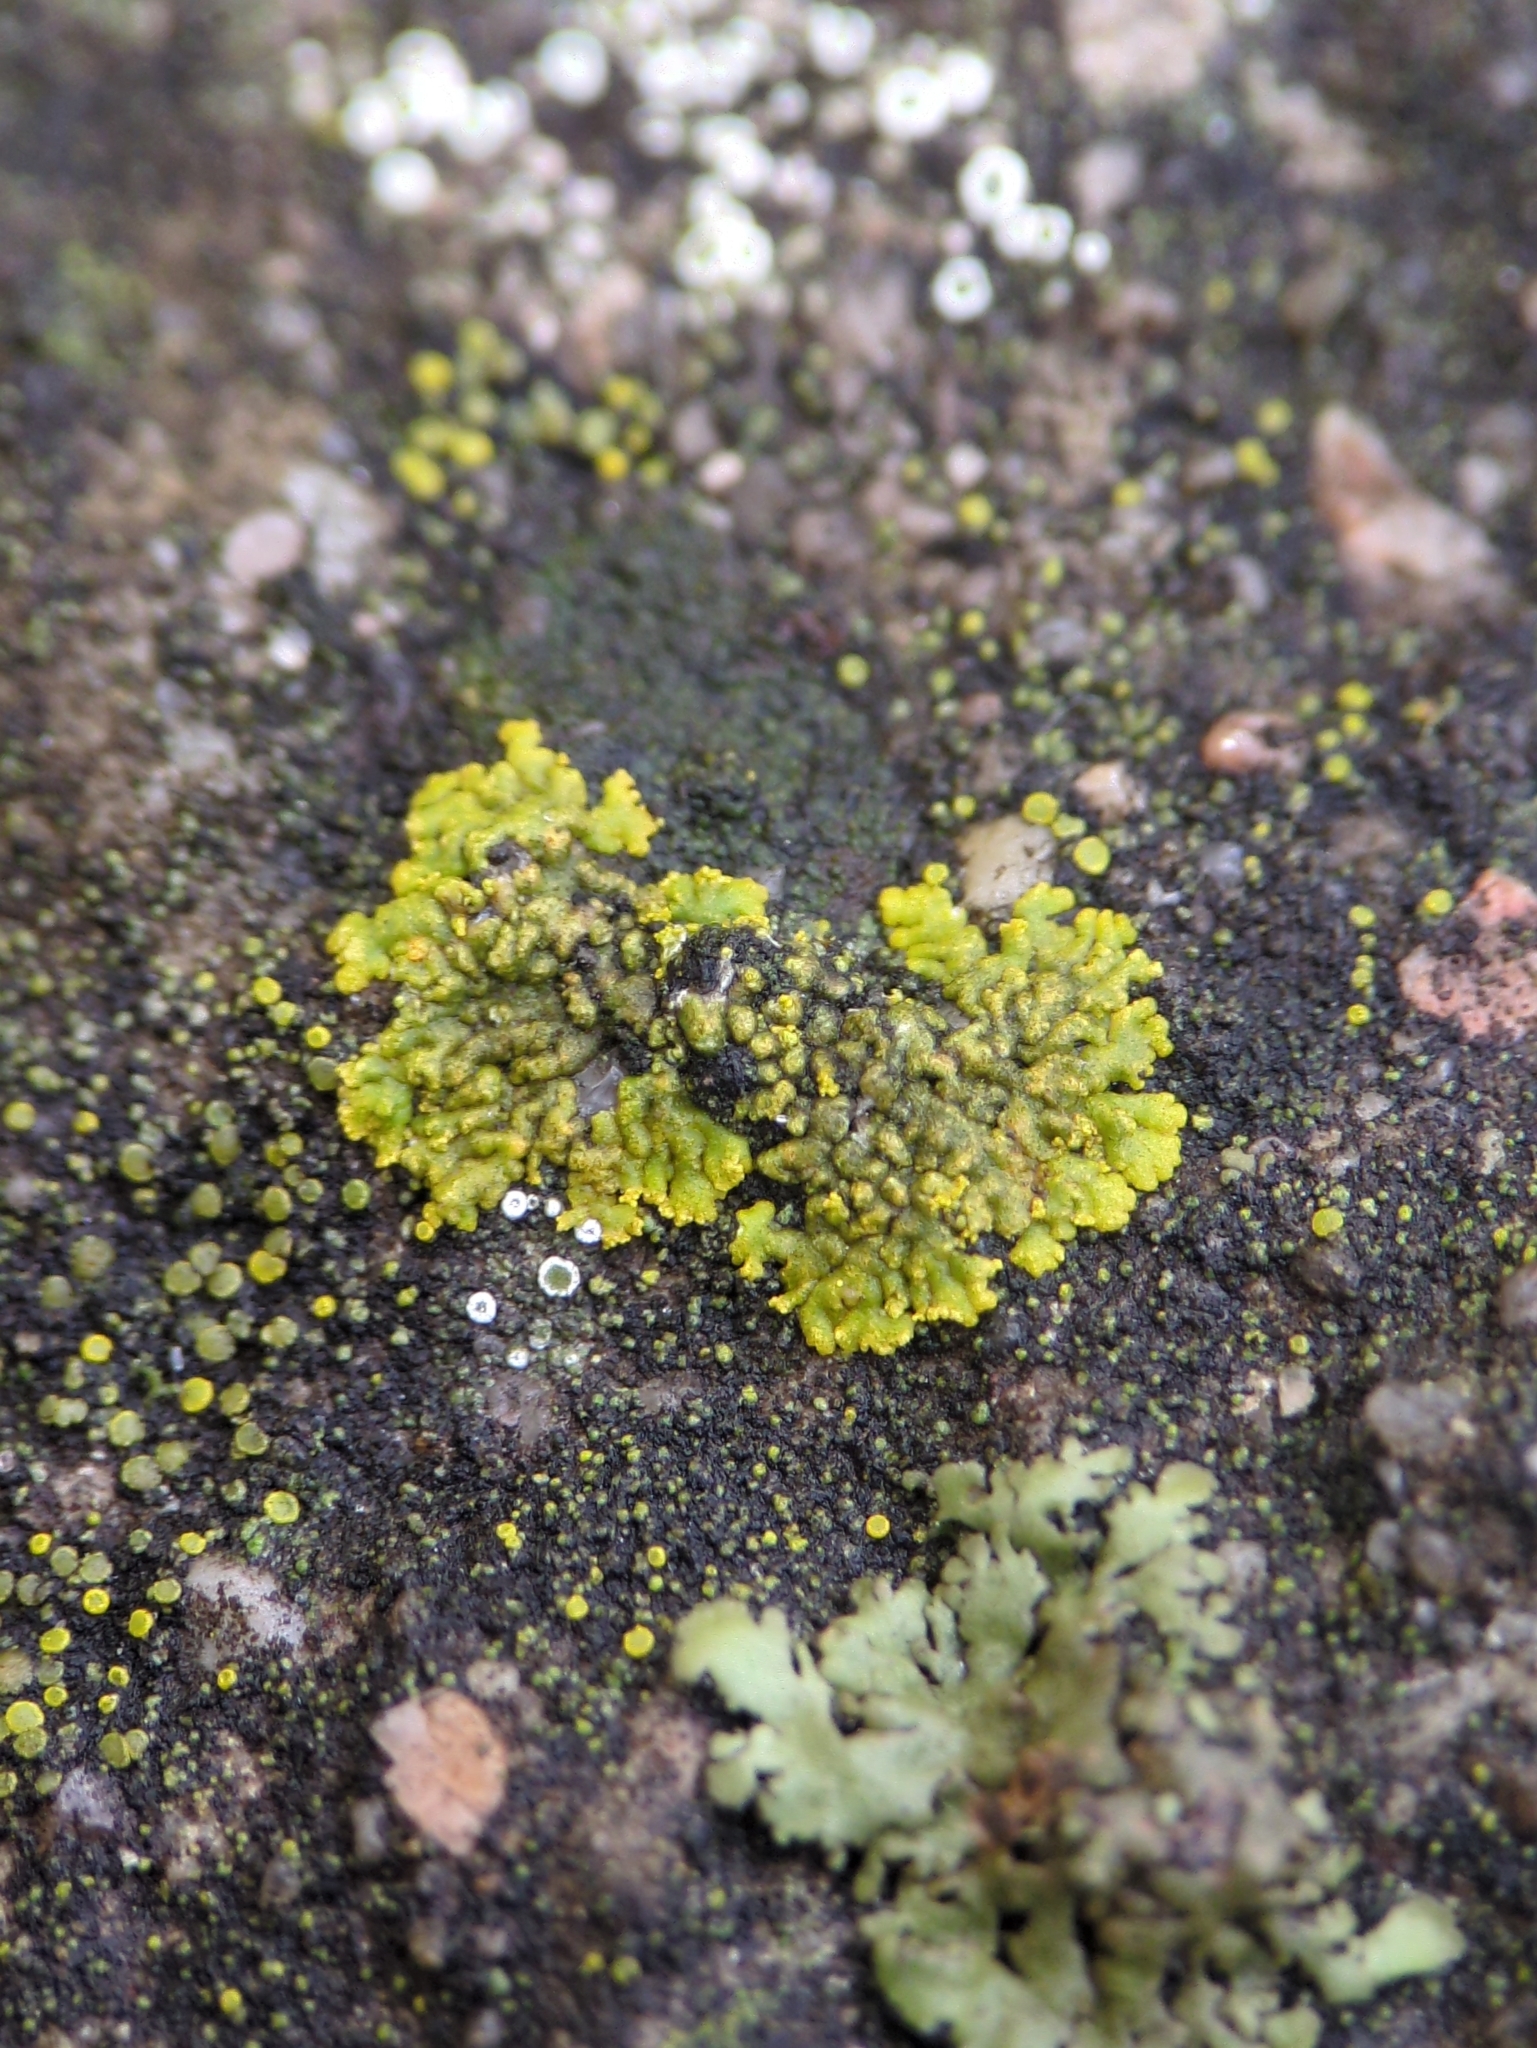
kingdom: Fungi
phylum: Ascomycota
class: Lecanoromycetes
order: Teloschistales
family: Teloschistaceae
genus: Calogaya
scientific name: Calogaya decipiens
